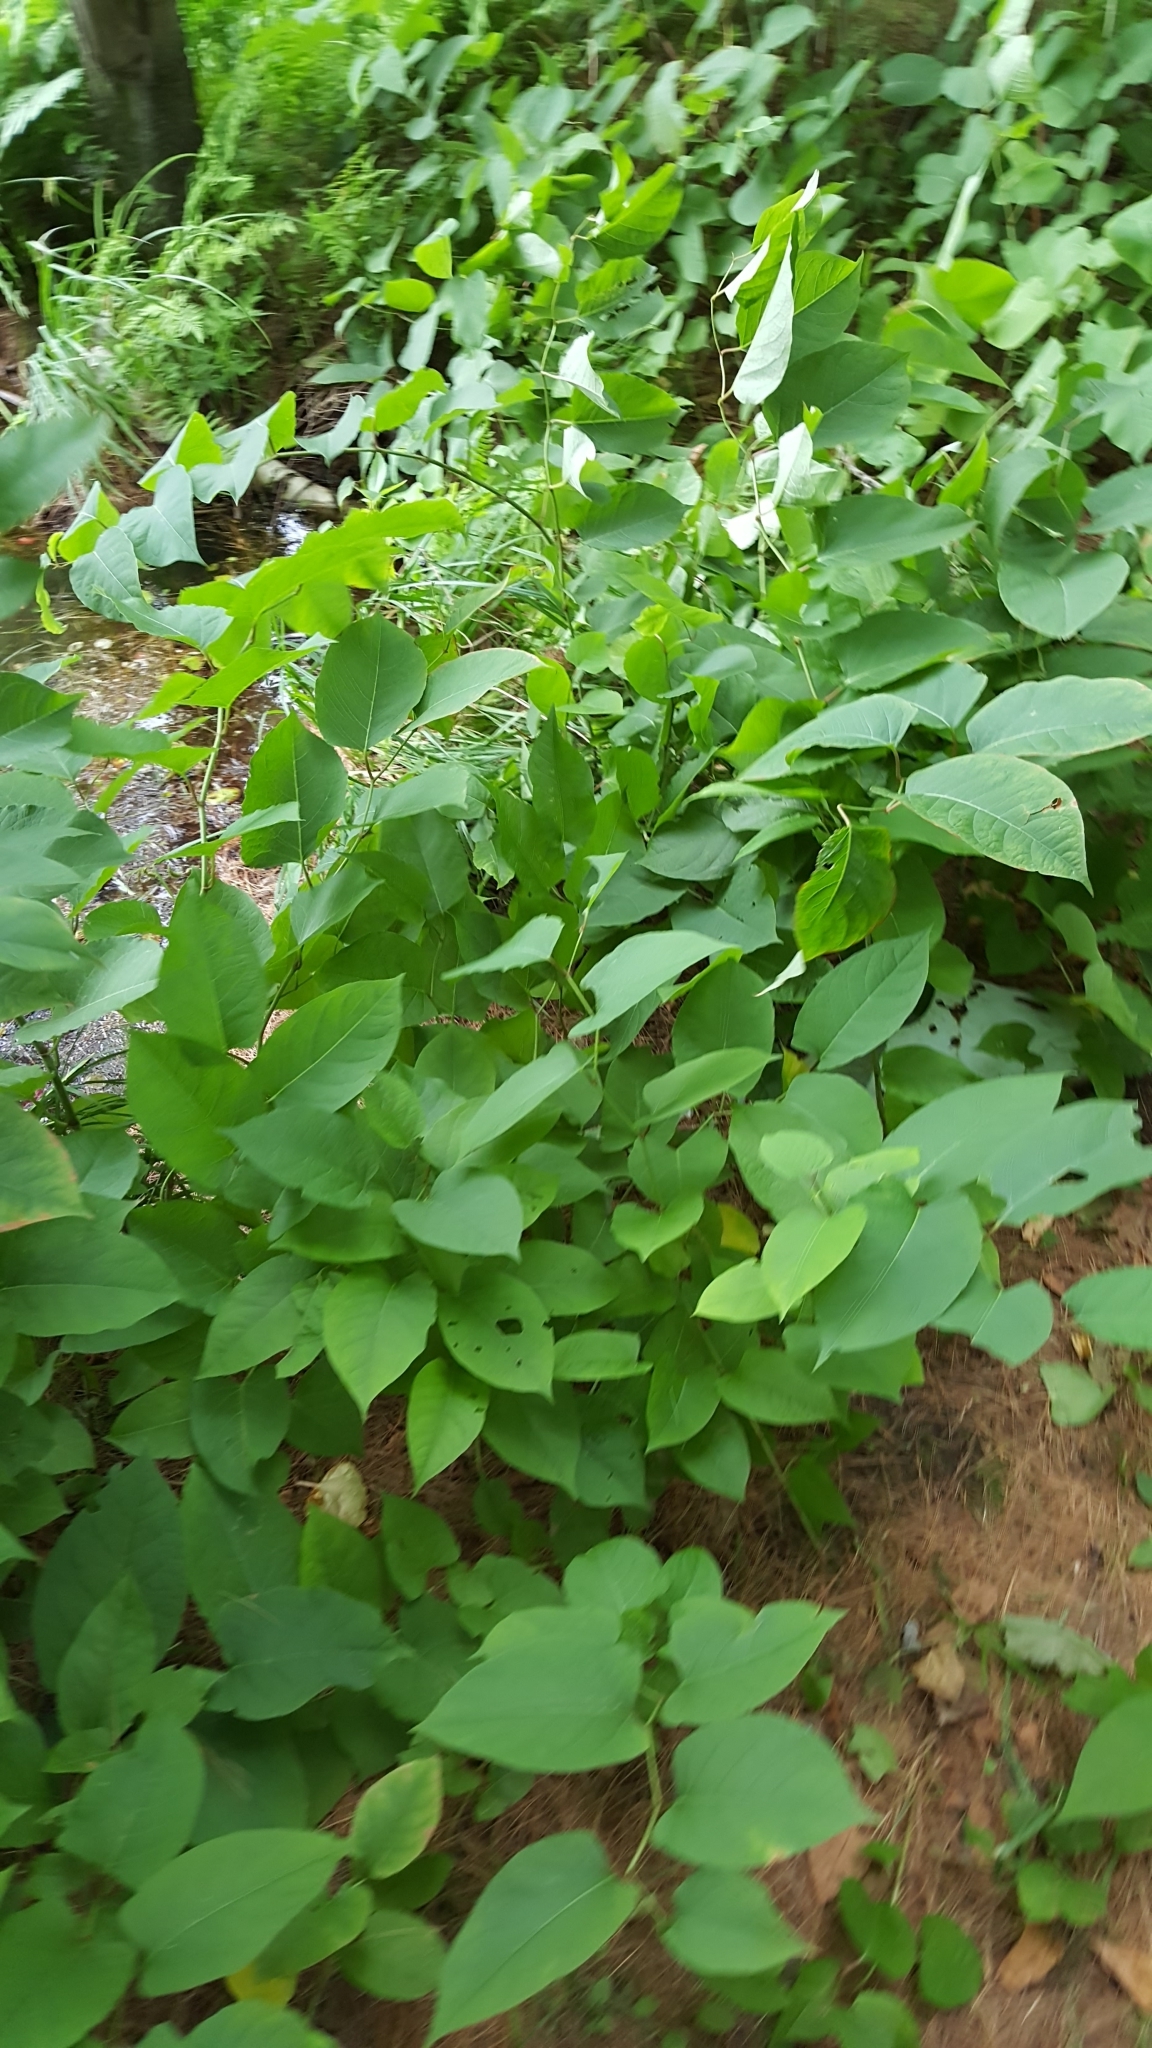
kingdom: Plantae
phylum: Tracheophyta
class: Magnoliopsida
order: Caryophyllales
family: Polygonaceae
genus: Reynoutria
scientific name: Reynoutria japonica
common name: Japanese knotweed
